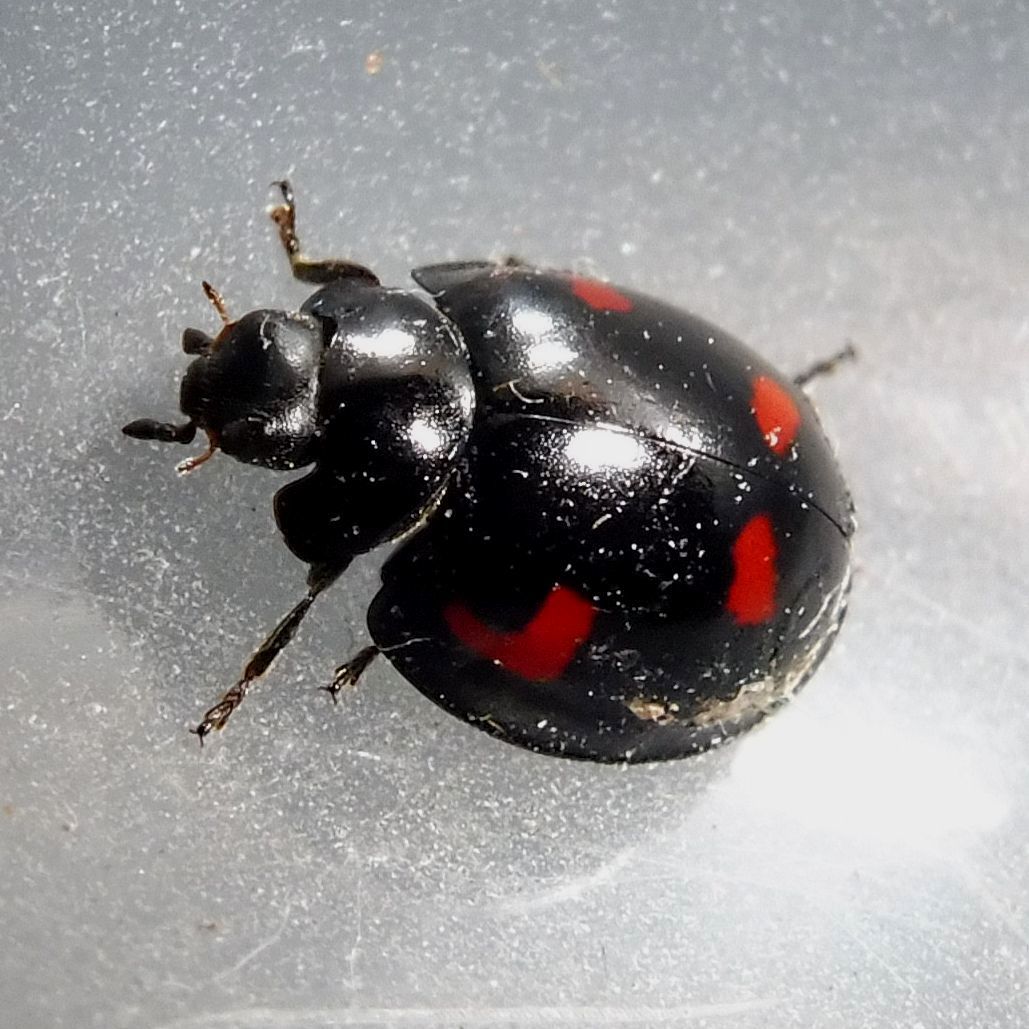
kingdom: Animalia
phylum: Arthropoda
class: Insecta
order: Coleoptera
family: Coccinellidae
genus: Brumus
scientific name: Brumus quadripustulatus
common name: Ladybird beetle
